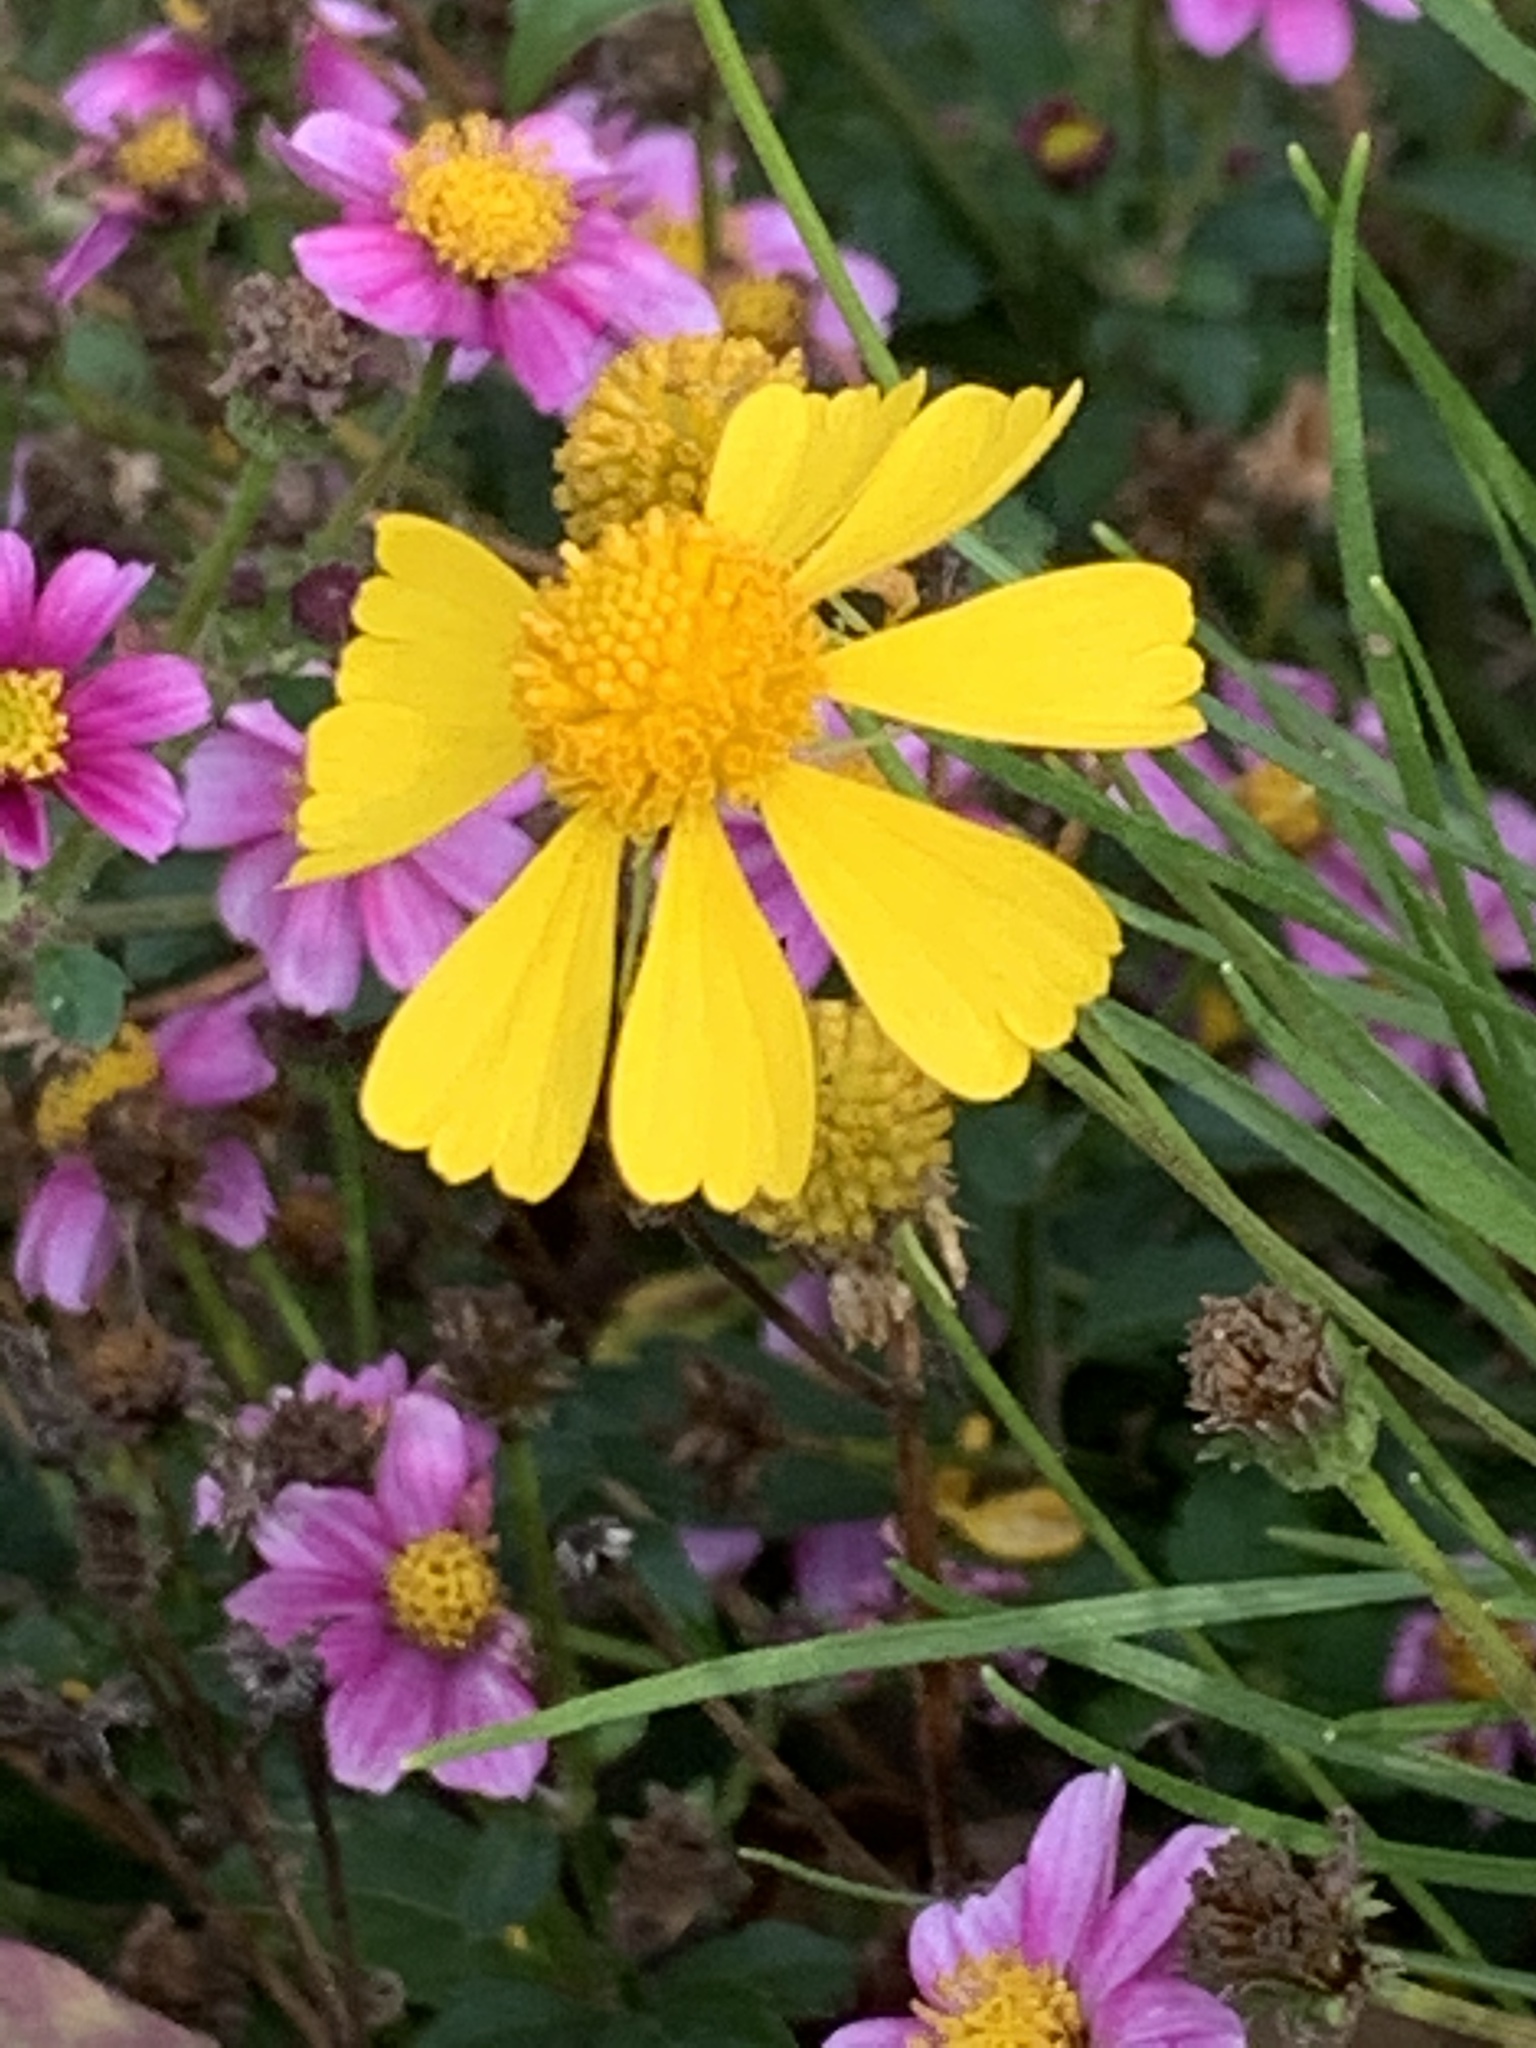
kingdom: Plantae
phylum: Tracheophyta
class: Magnoliopsida
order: Asterales
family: Asteraceae
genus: Helenium
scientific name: Helenium autumnale
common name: Sneezeweed
